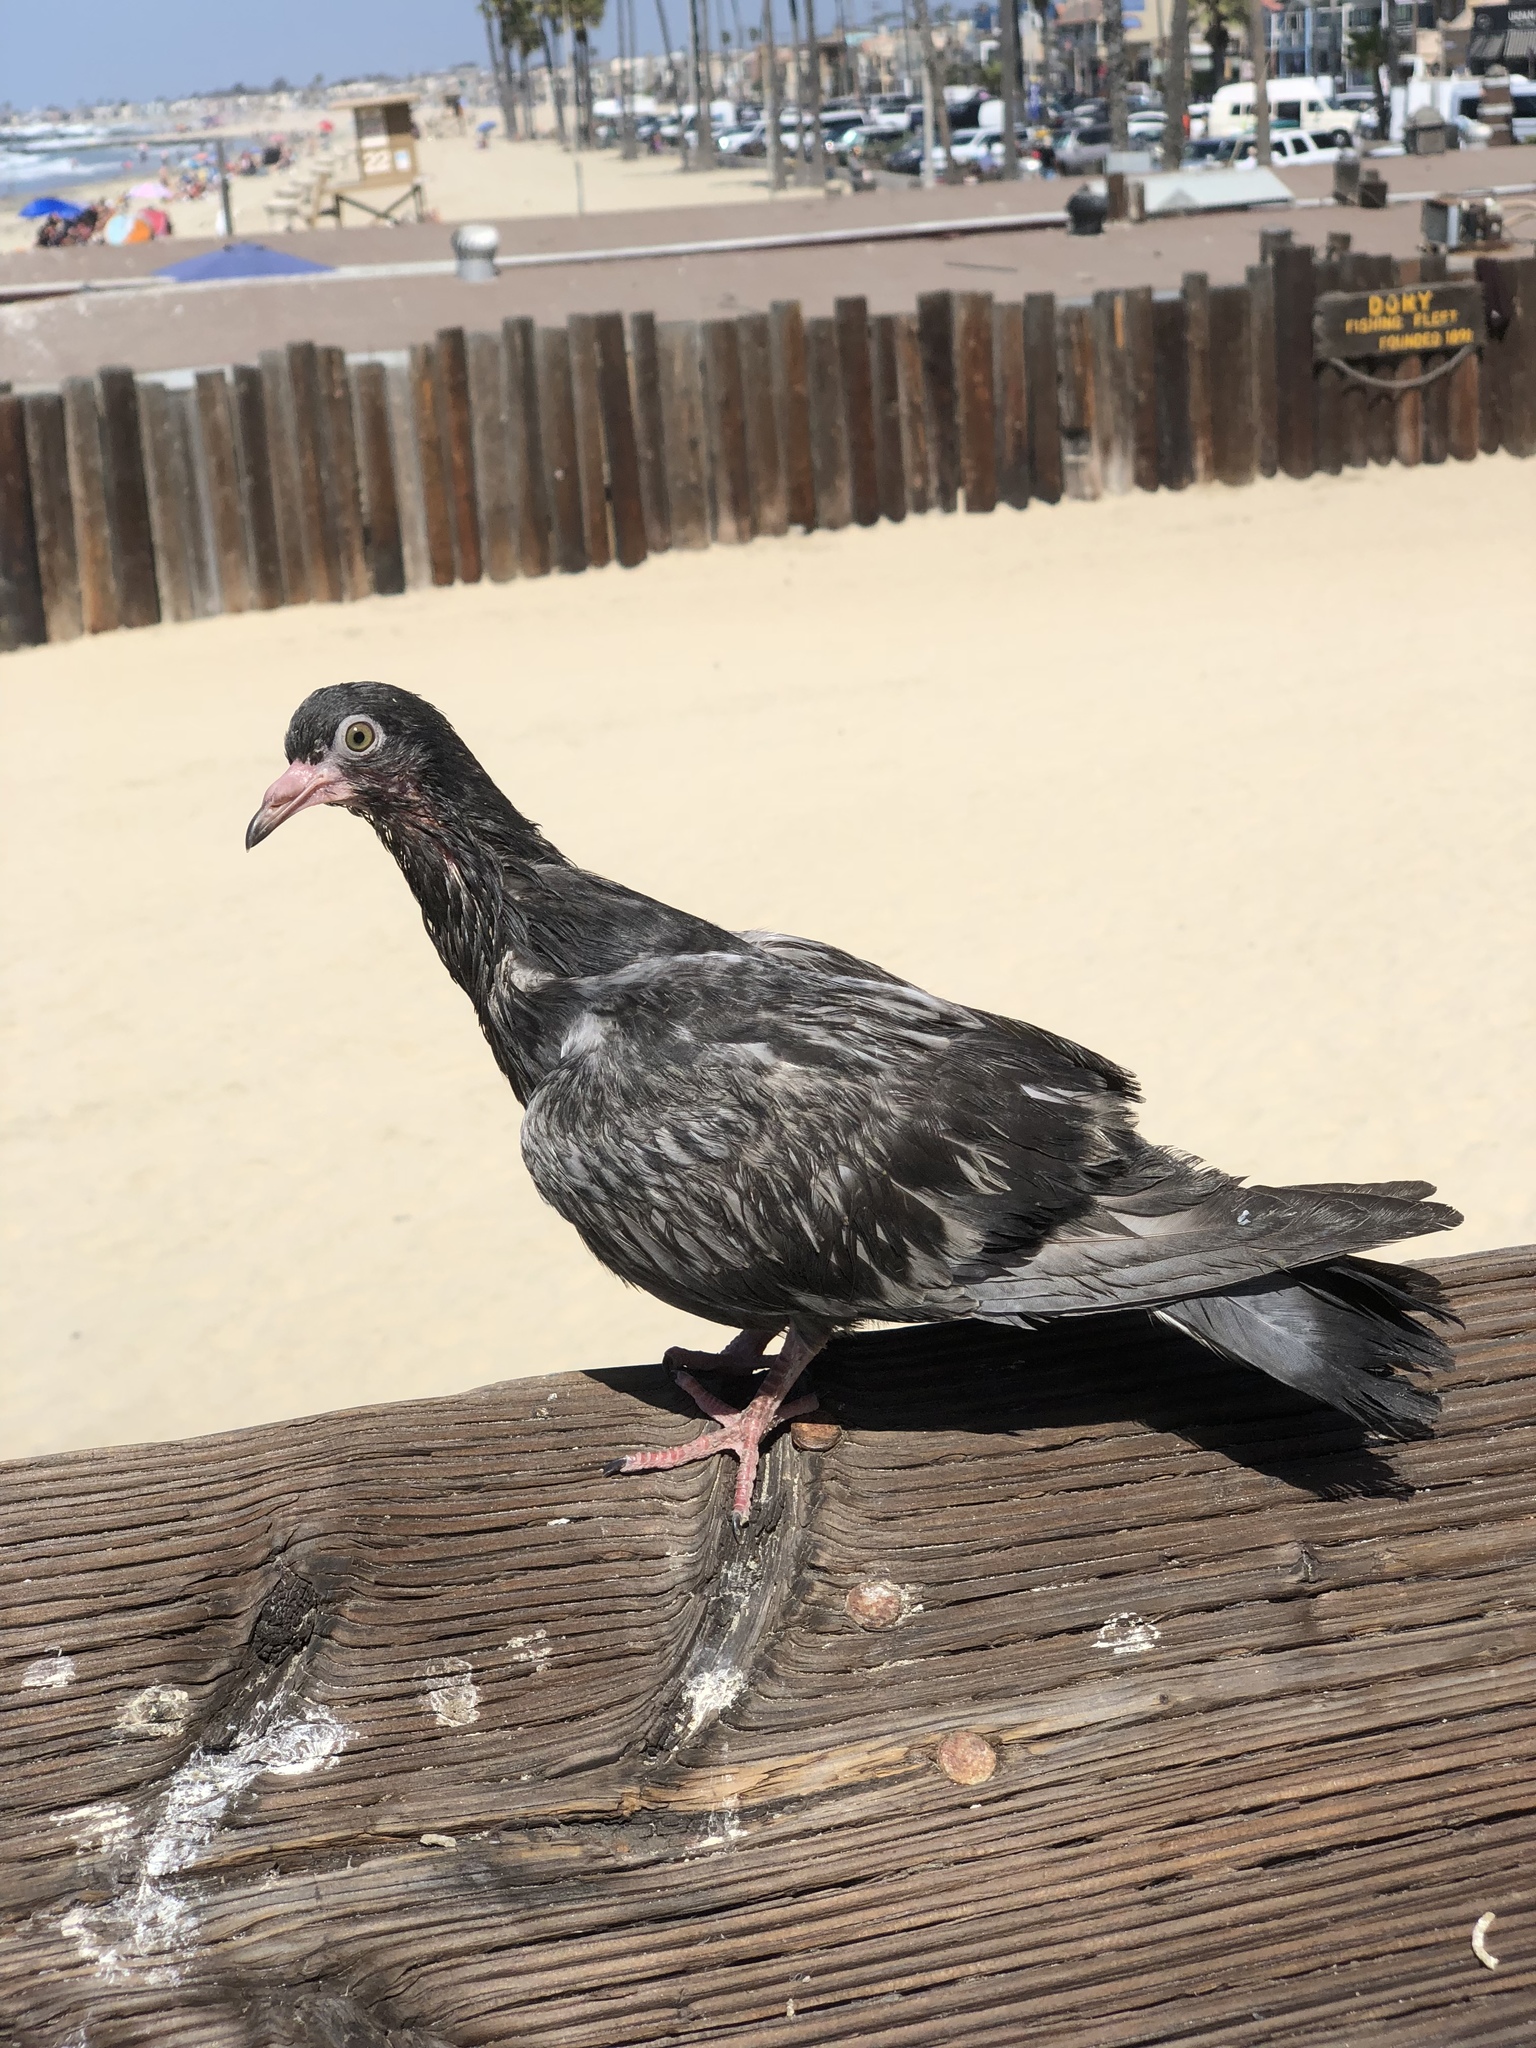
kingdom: Animalia
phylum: Chordata
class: Aves
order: Columbiformes
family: Columbidae
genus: Columba
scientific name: Columba livia
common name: Rock pigeon
